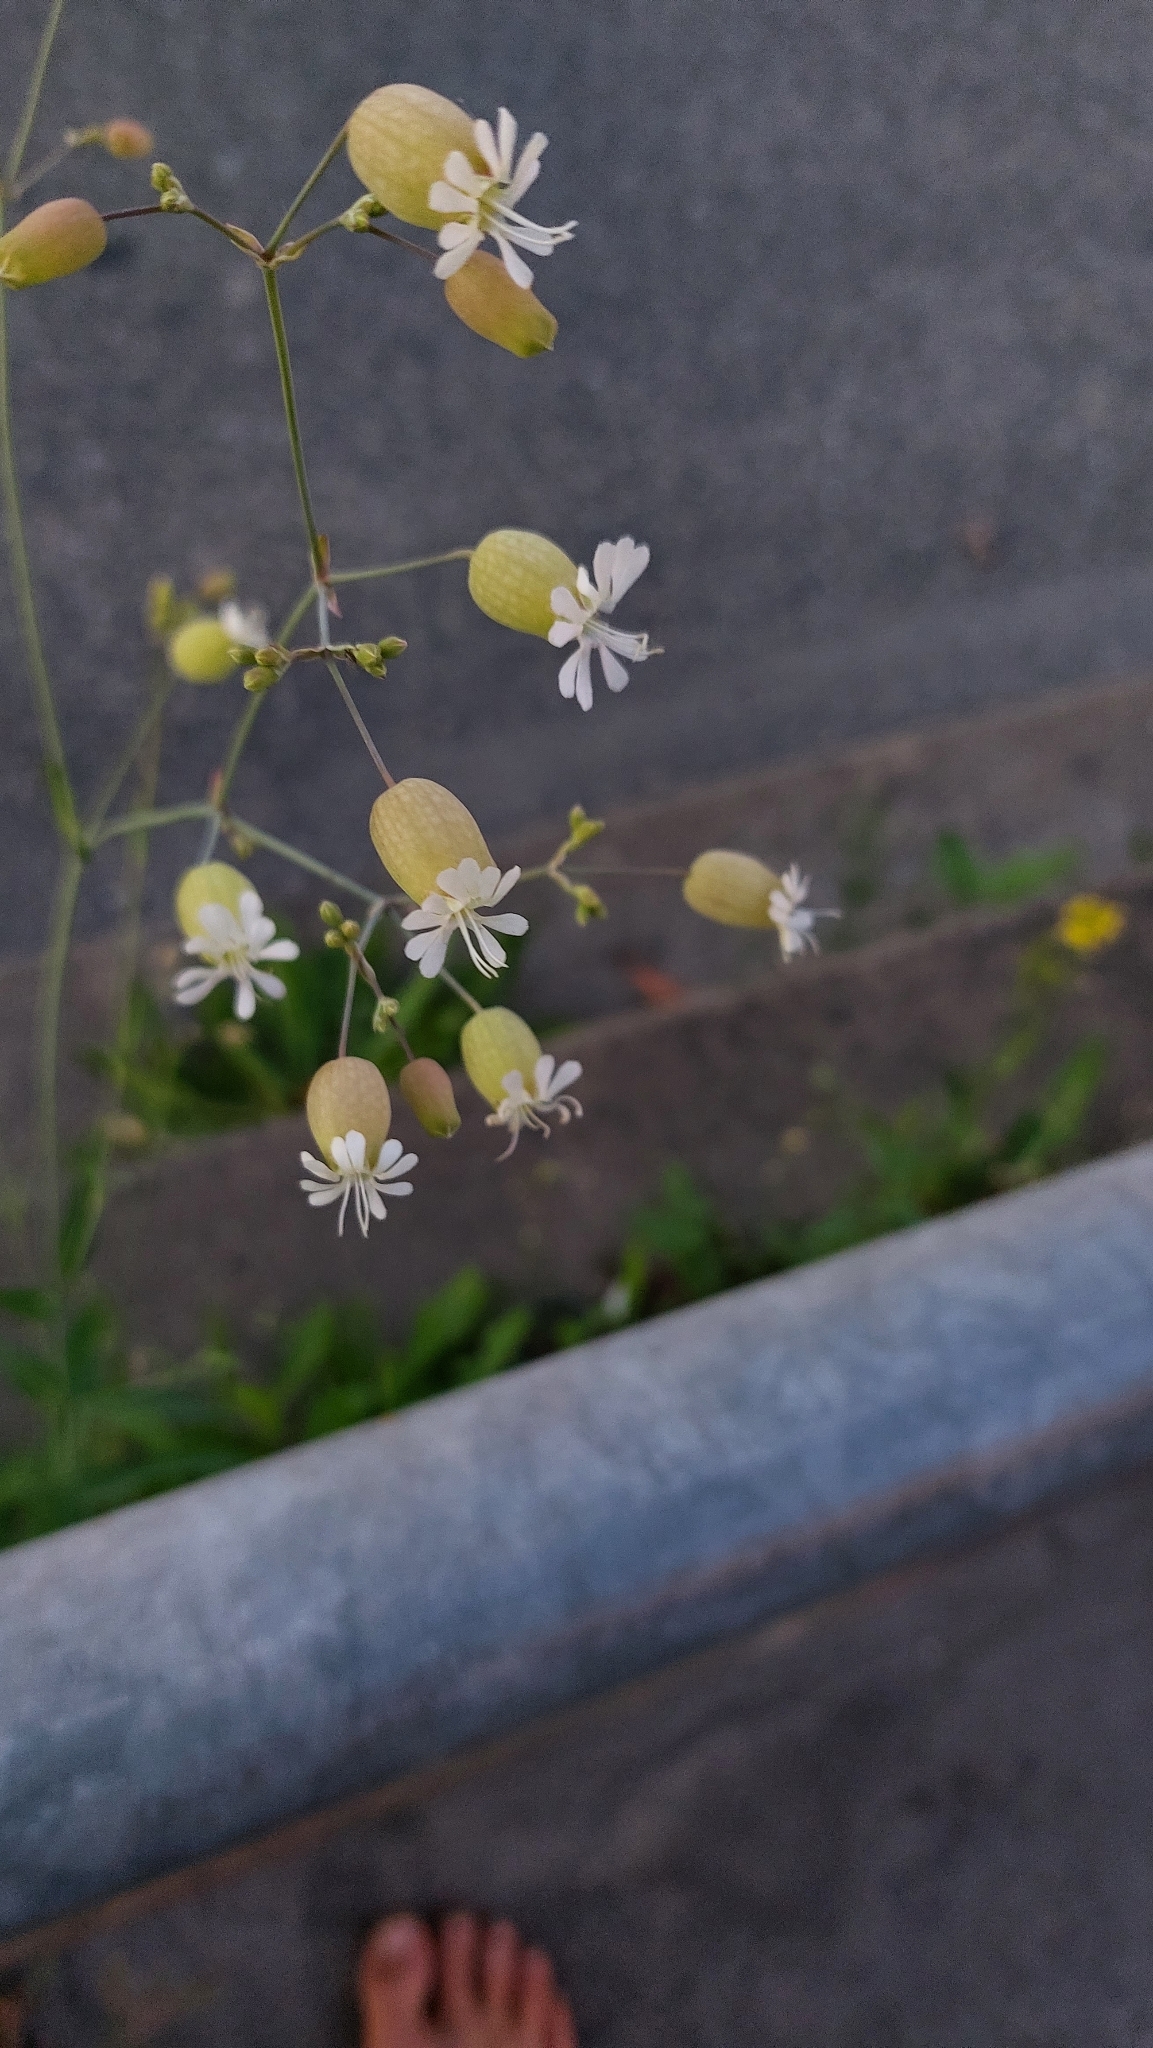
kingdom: Plantae
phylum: Tracheophyta
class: Magnoliopsida
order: Caryophyllales
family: Caryophyllaceae
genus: Silene
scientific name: Silene vulgaris
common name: Bladder campion
